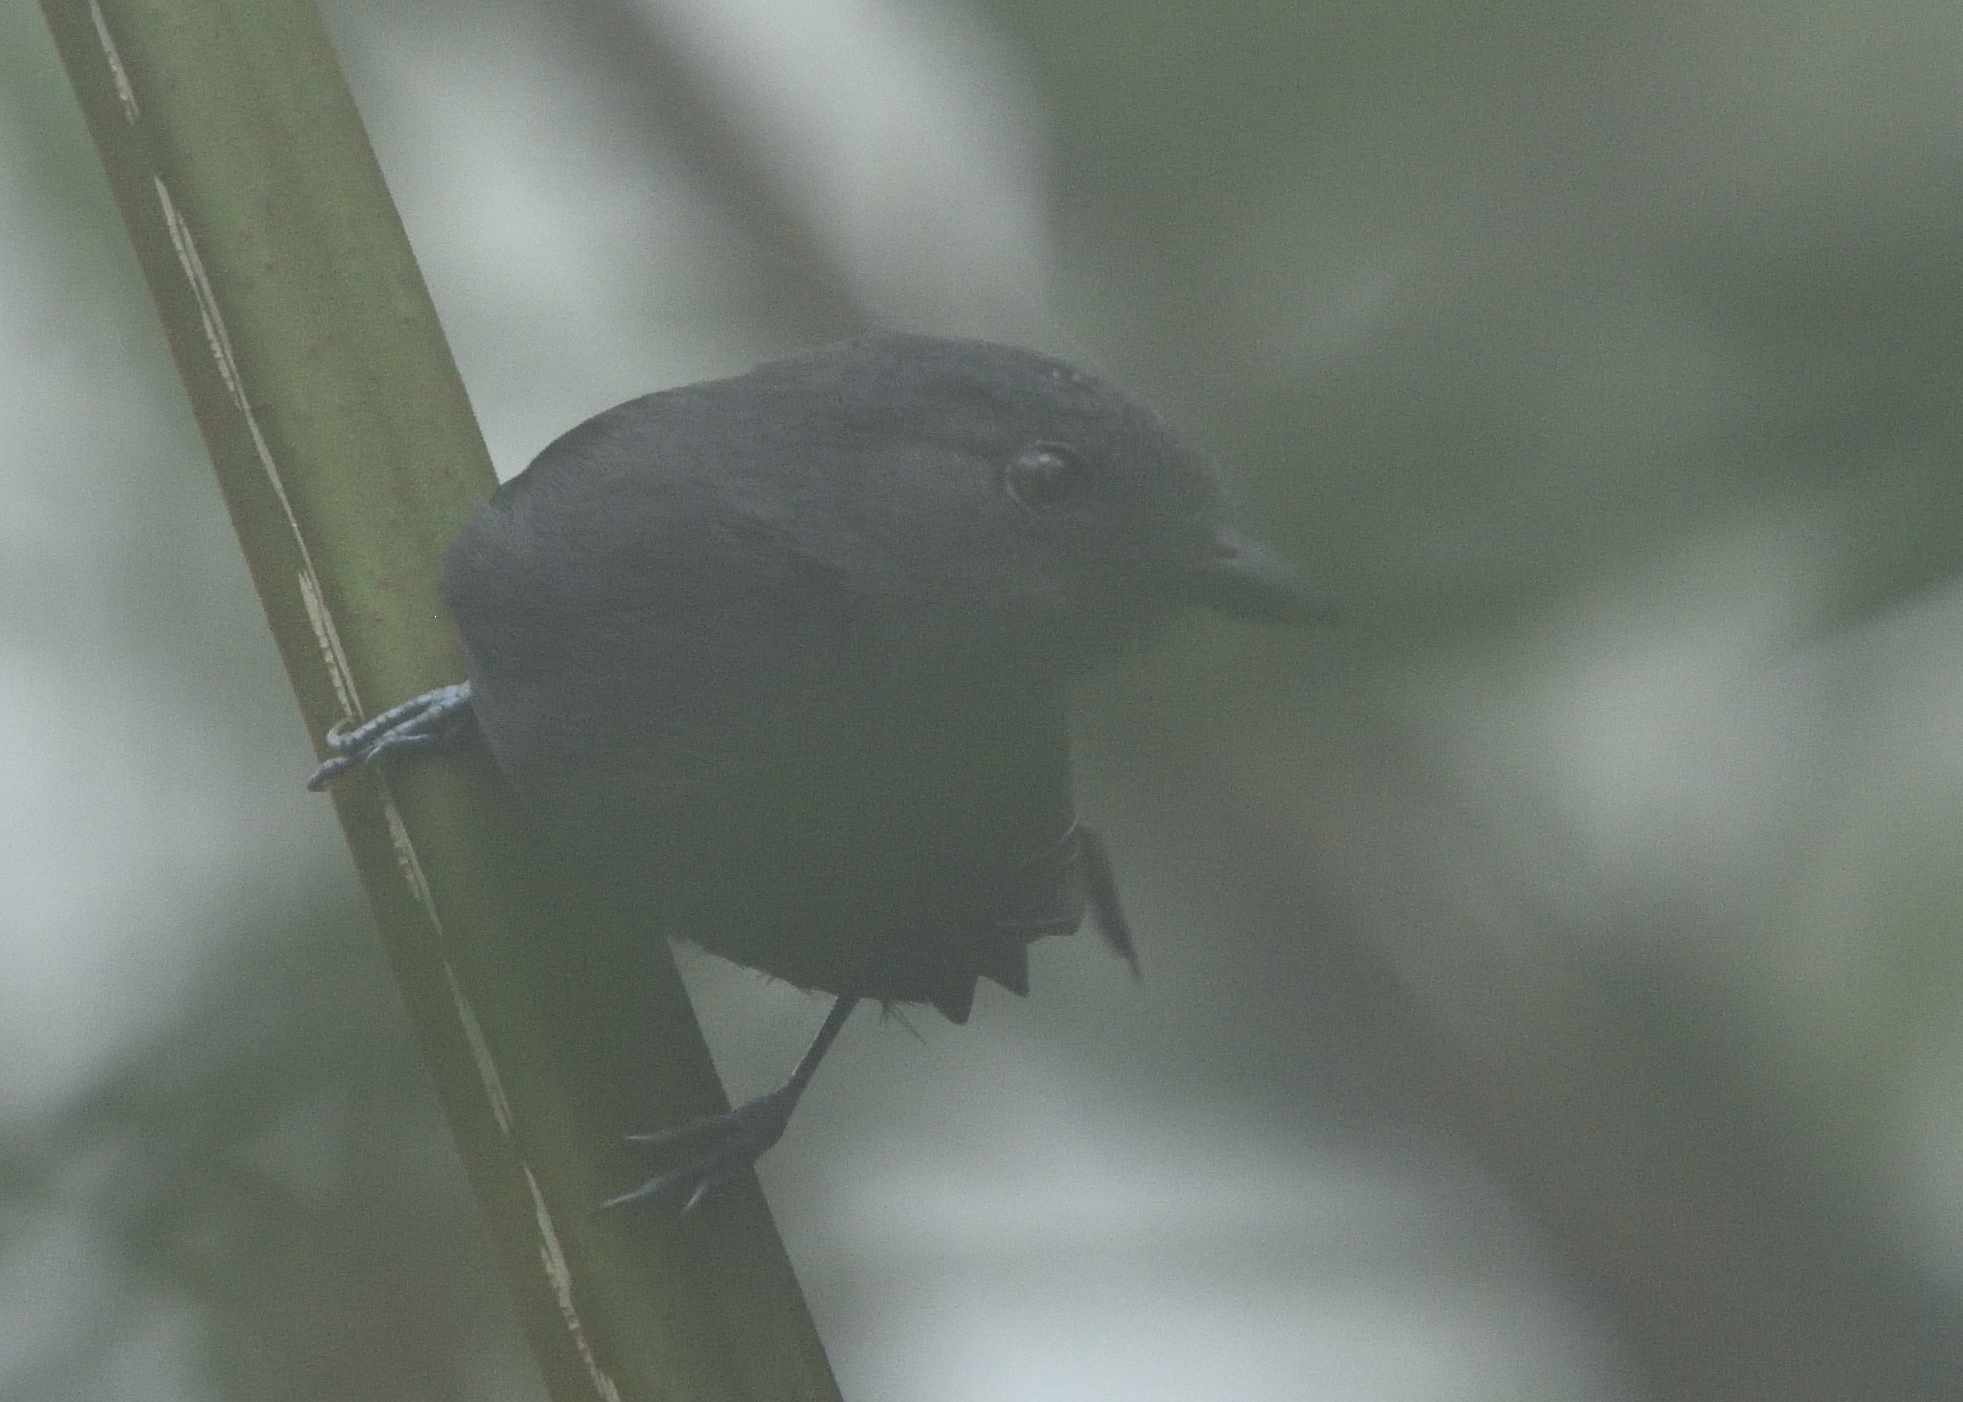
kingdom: Animalia
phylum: Chordata
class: Aves
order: Passeriformes
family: Thamnophilidae
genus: Thamnophilus
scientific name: Thamnophilus unicolor
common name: Uniform antshrike
